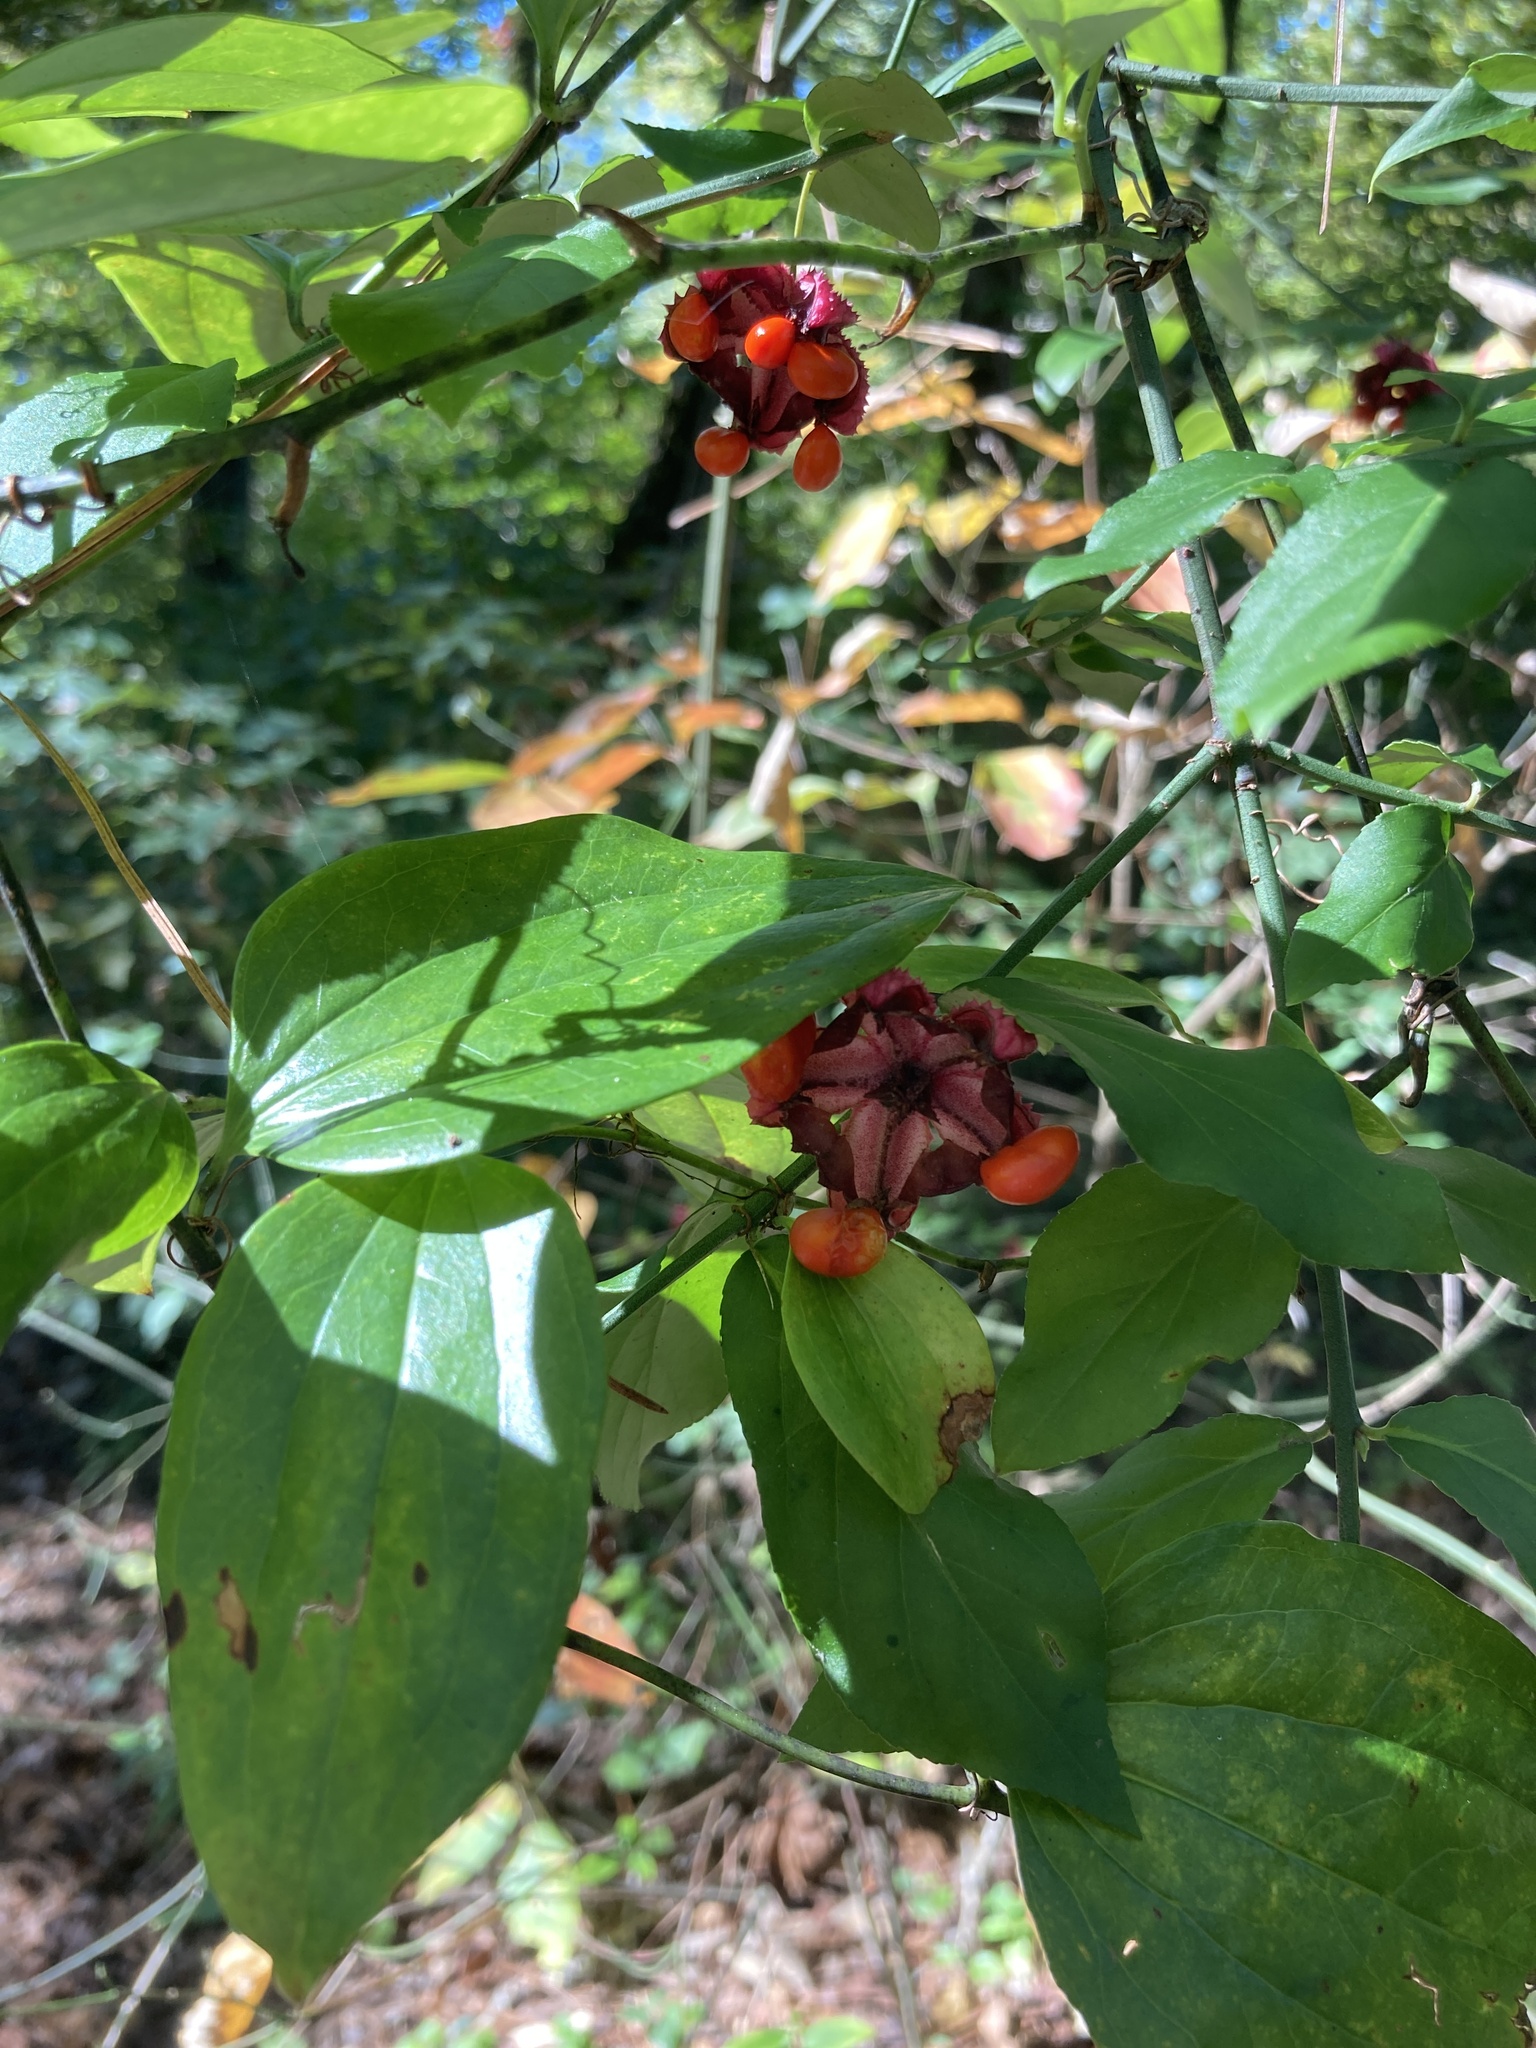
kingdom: Plantae
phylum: Tracheophyta
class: Magnoliopsida
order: Celastrales
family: Celastraceae
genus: Euonymus
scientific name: Euonymus americanus
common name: Bursting-heart
